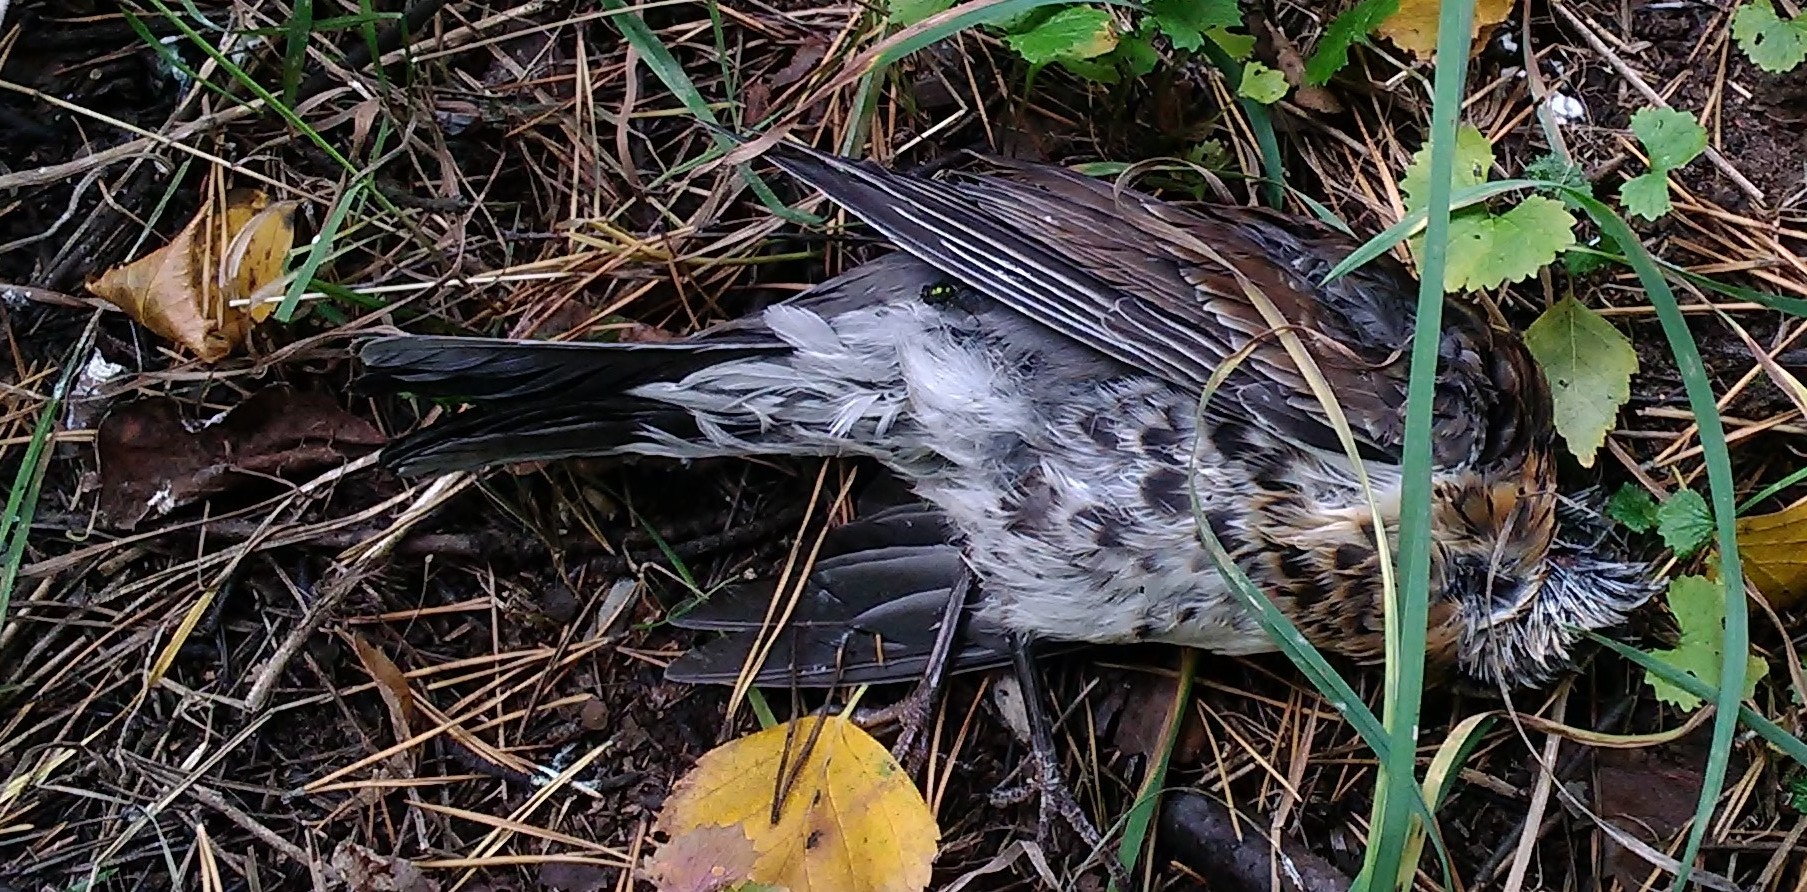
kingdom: Animalia
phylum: Chordata
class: Aves
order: Passeriformes
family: Turdidae
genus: Turdus
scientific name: Turdus pilaris
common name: Fieldfare
